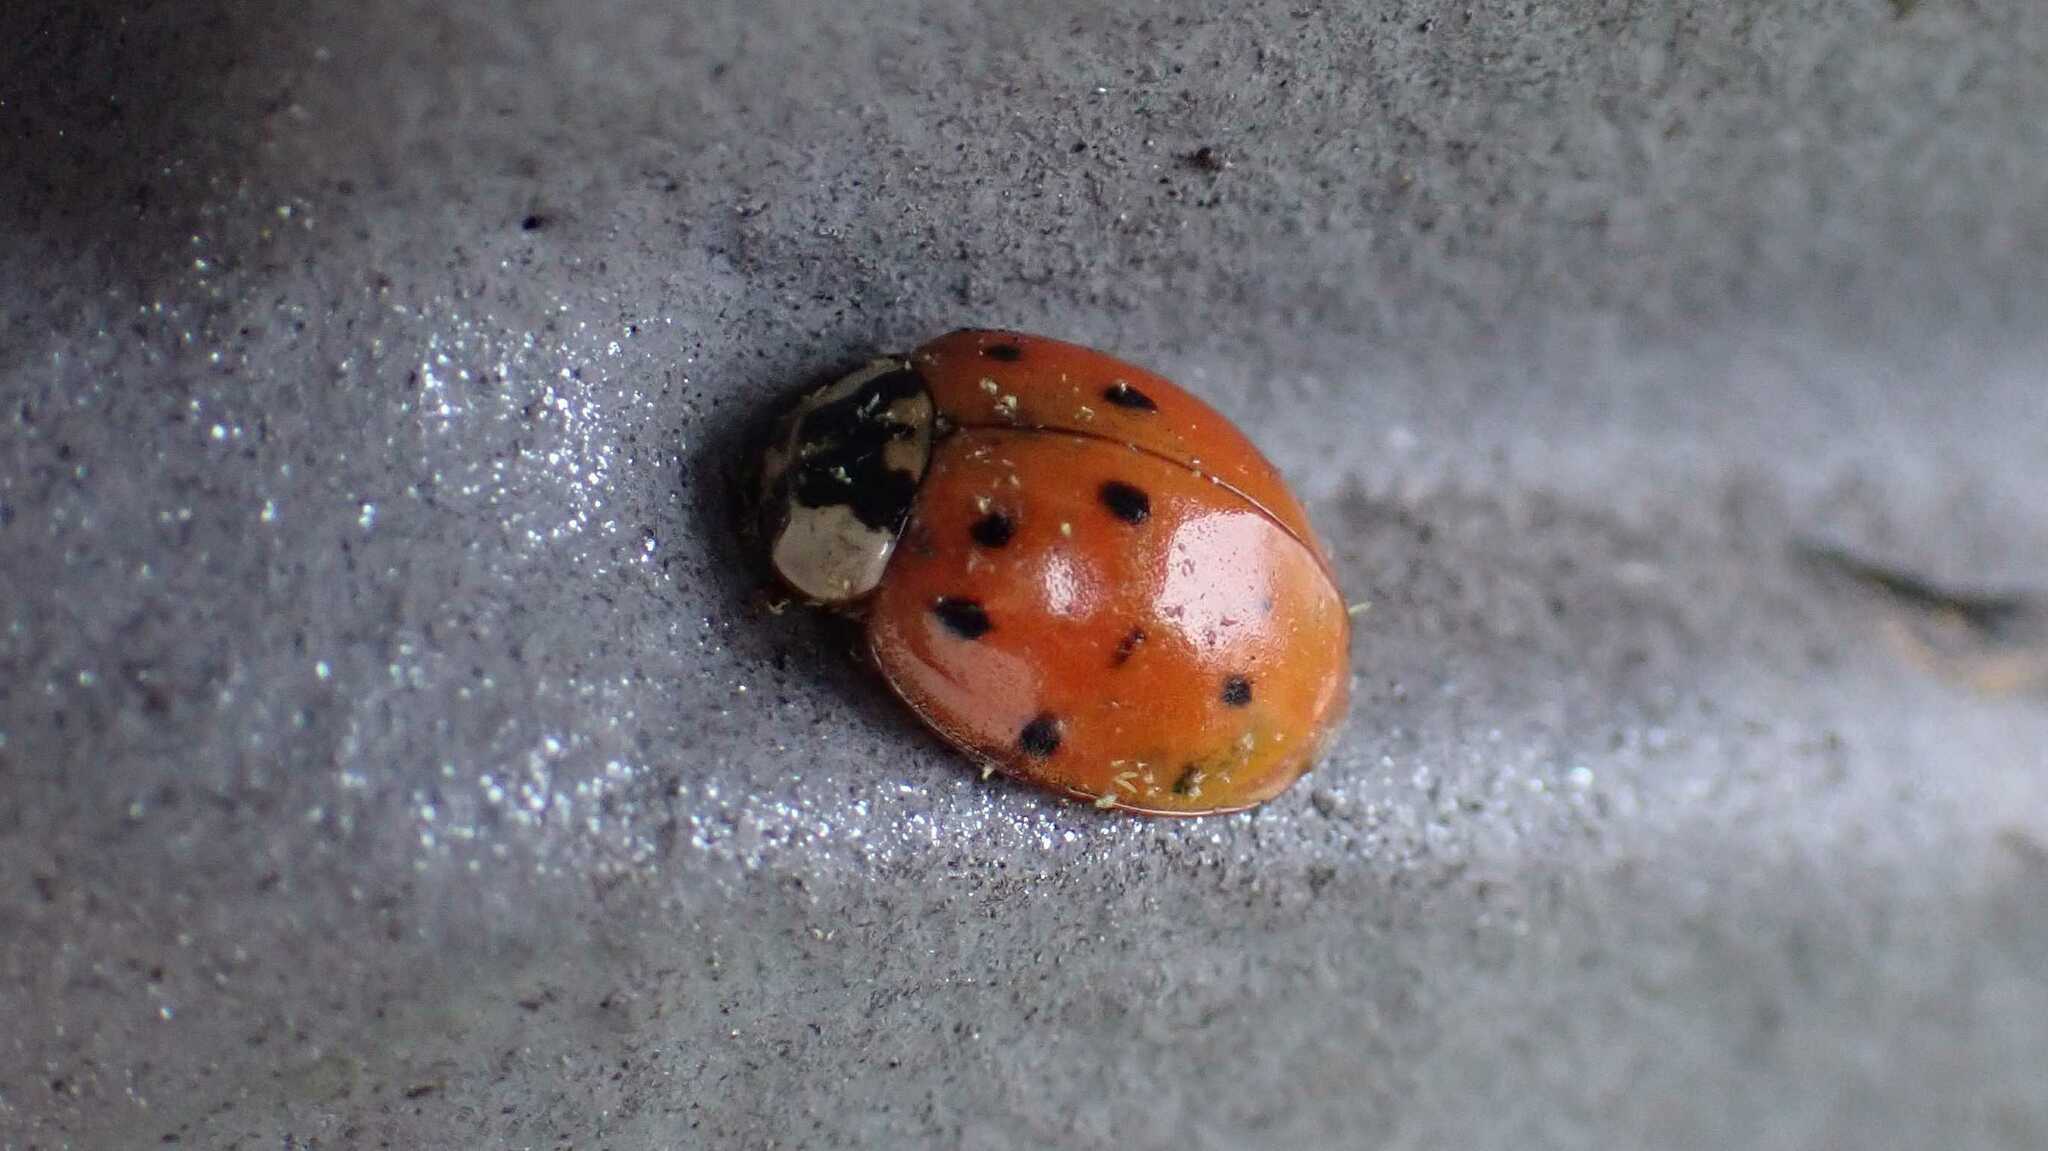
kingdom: Animalia
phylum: Arthropoda
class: Insecta
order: Coleoptera
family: Coccinellidae
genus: Harmonia
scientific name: Harmonia axyridis
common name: Harlequin ladybird
